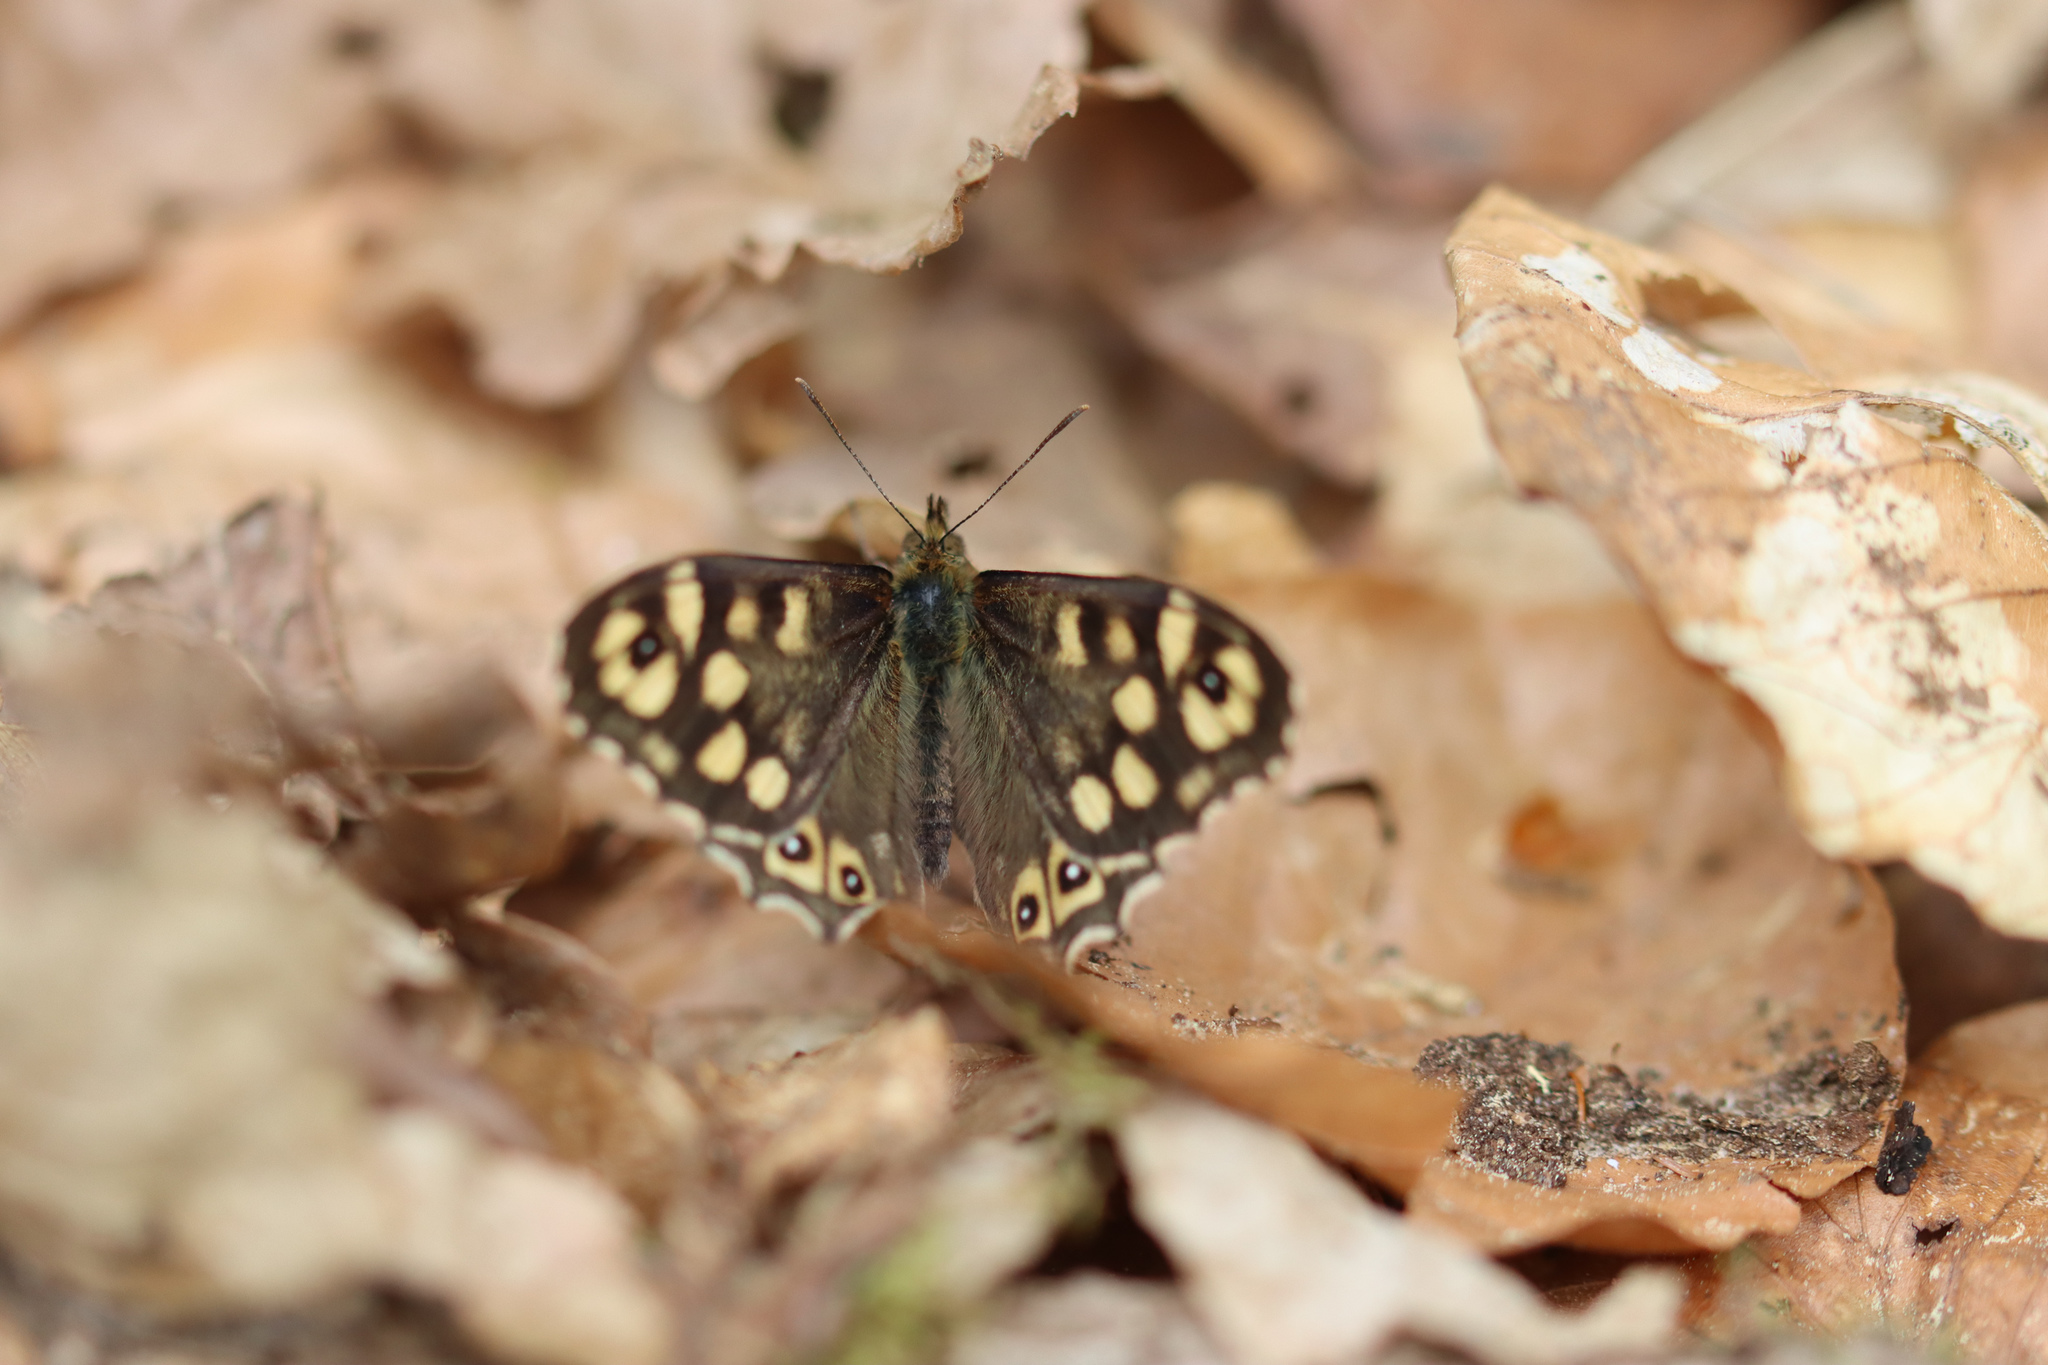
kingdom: Animalia
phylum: Arthropoda
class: Insecta
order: Lepidoptera
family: Nymphalidae
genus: Pararge
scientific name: Pararge aegeria
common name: Speckled wood
